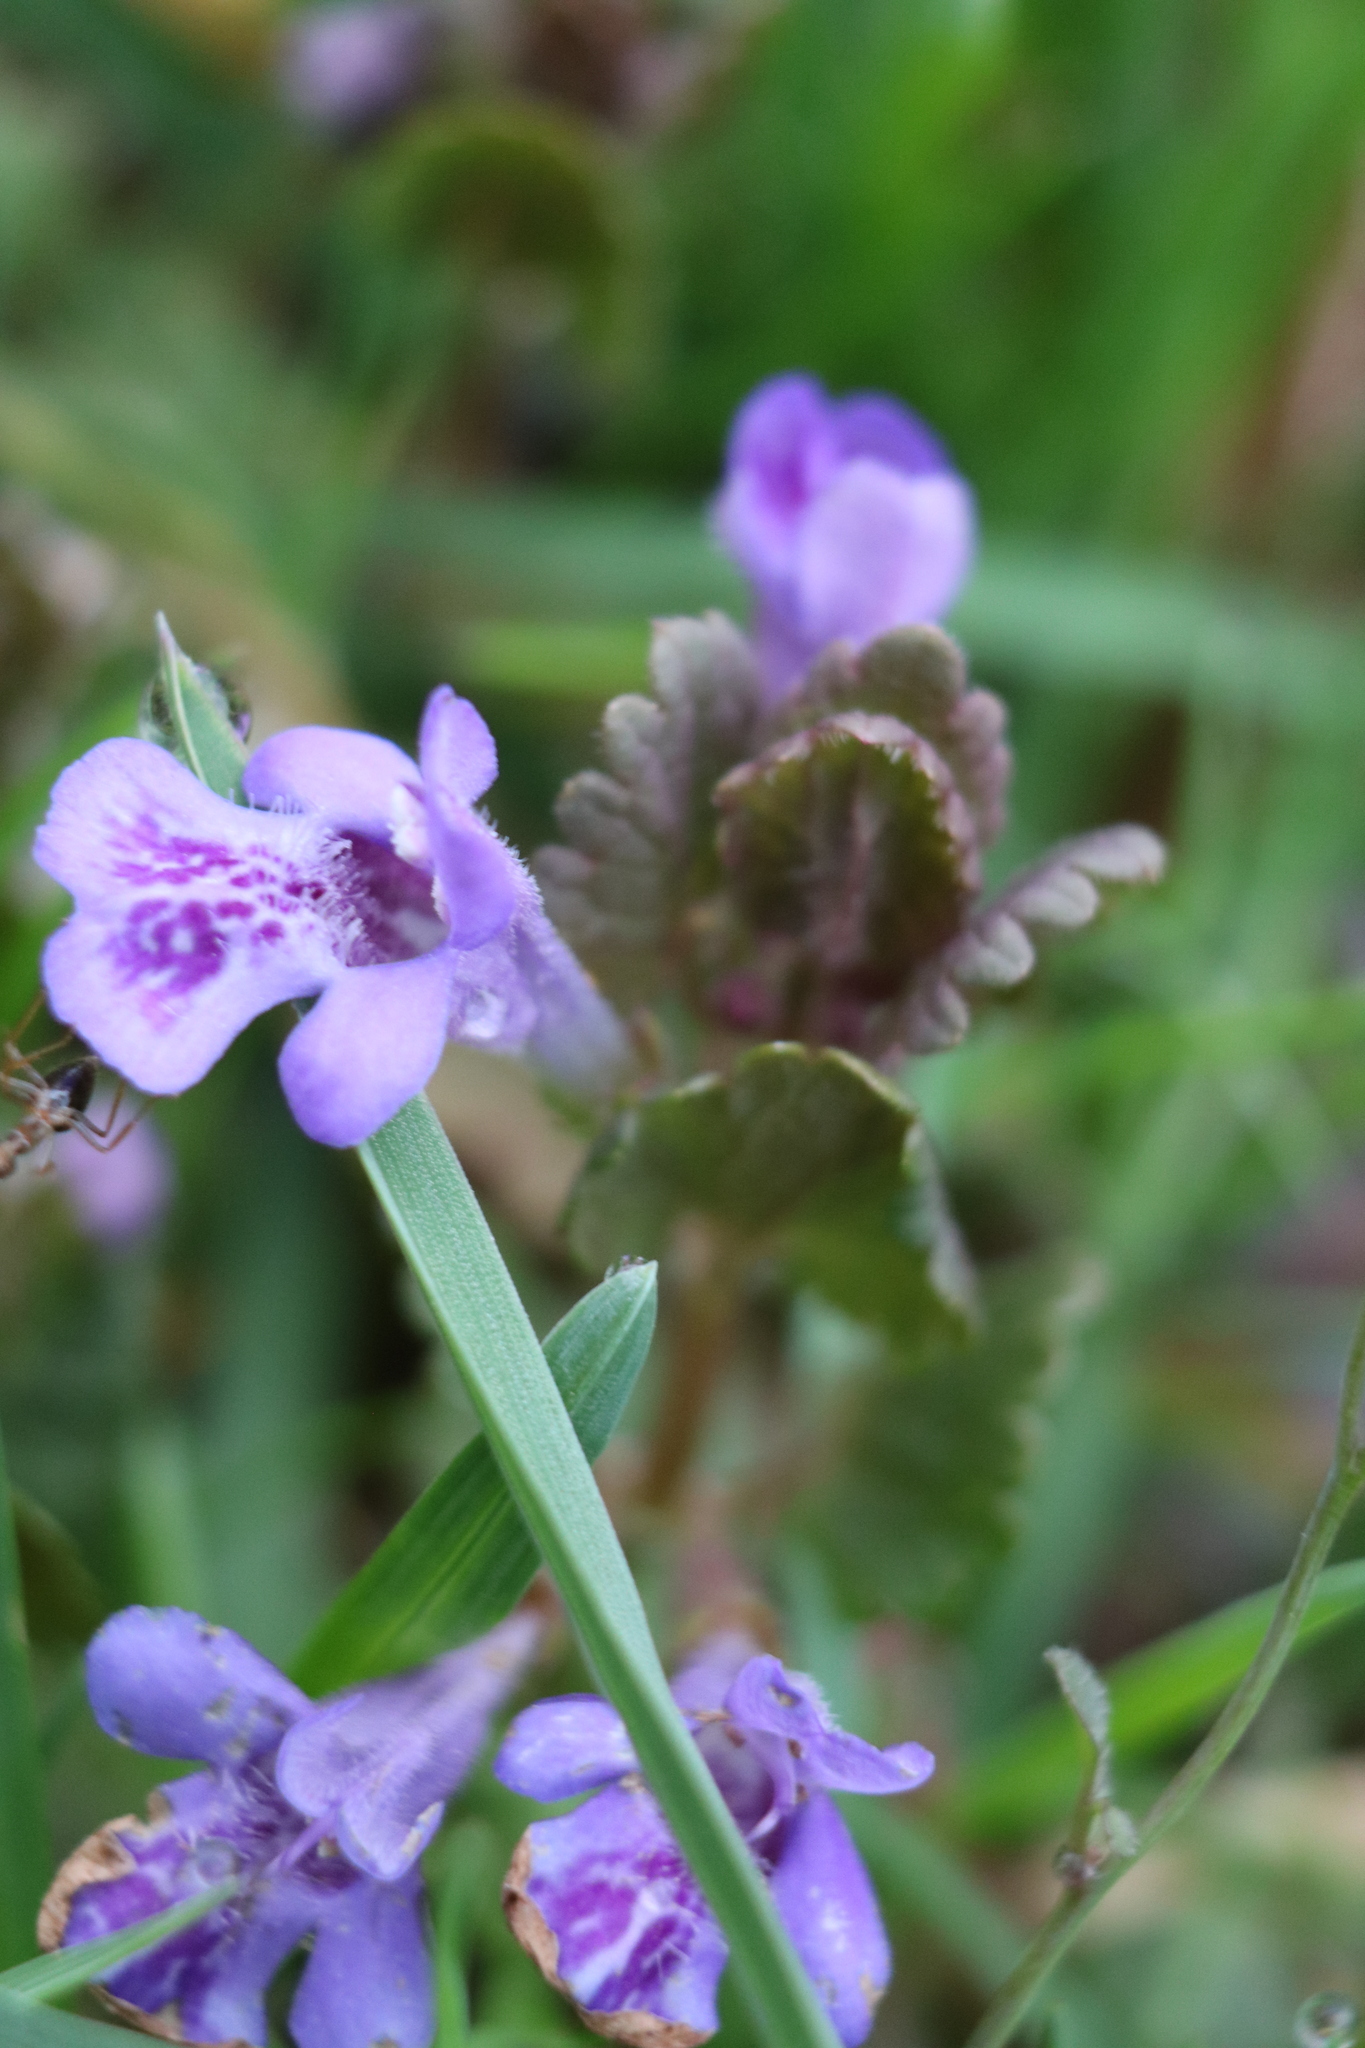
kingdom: Plantae
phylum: Tracheophyta
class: Magnoliopsida
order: Lamiales
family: Lamiaceae
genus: Glechoma
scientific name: Glechoma hederacea
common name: Ground ivy
